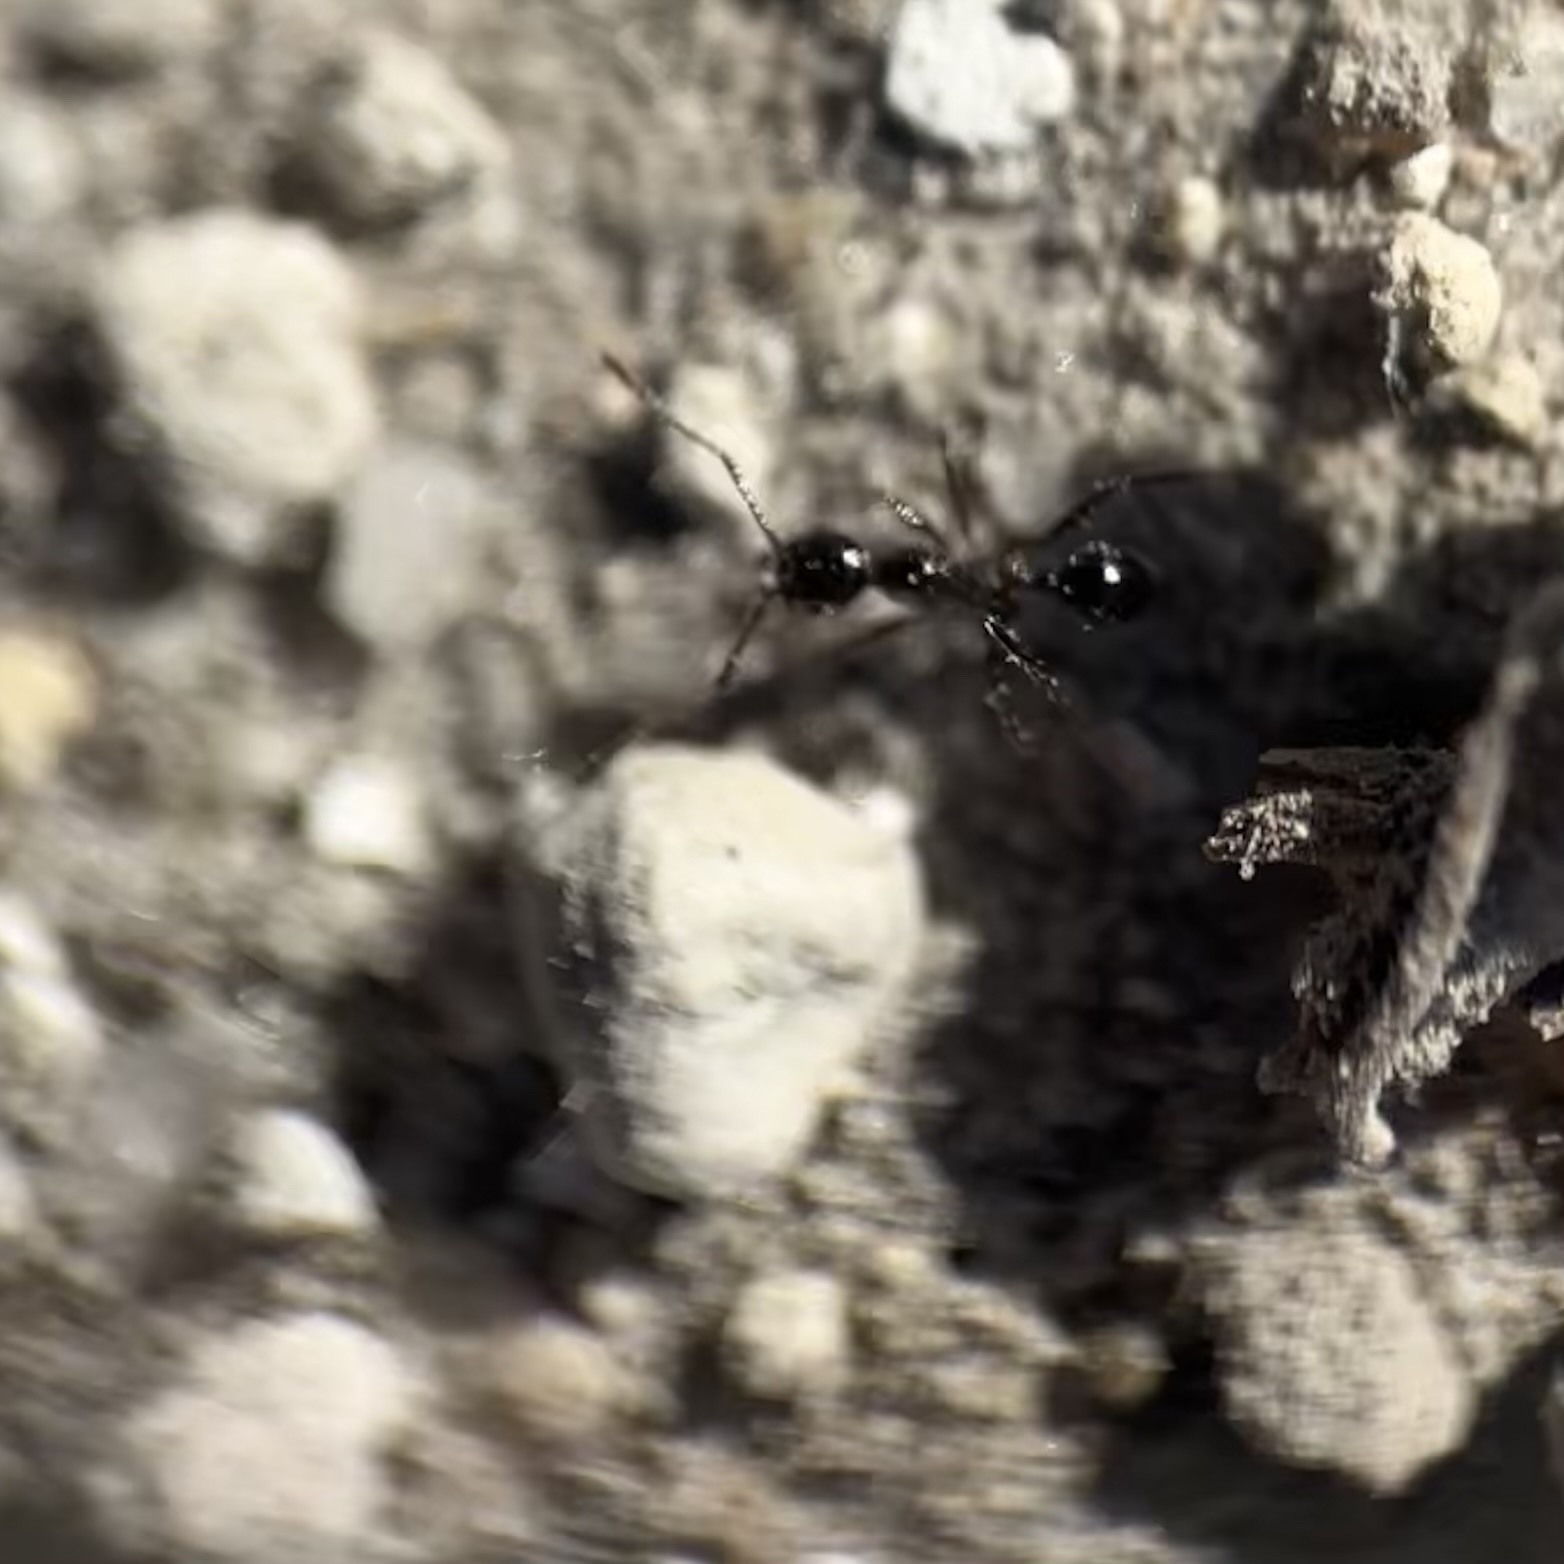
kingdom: Animalia
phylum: Arthropoda
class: Insecta
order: Hymenoptera
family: Formicidae
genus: Pheidole
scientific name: Pheidole obscurithorax
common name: Obscure big-headed ant
